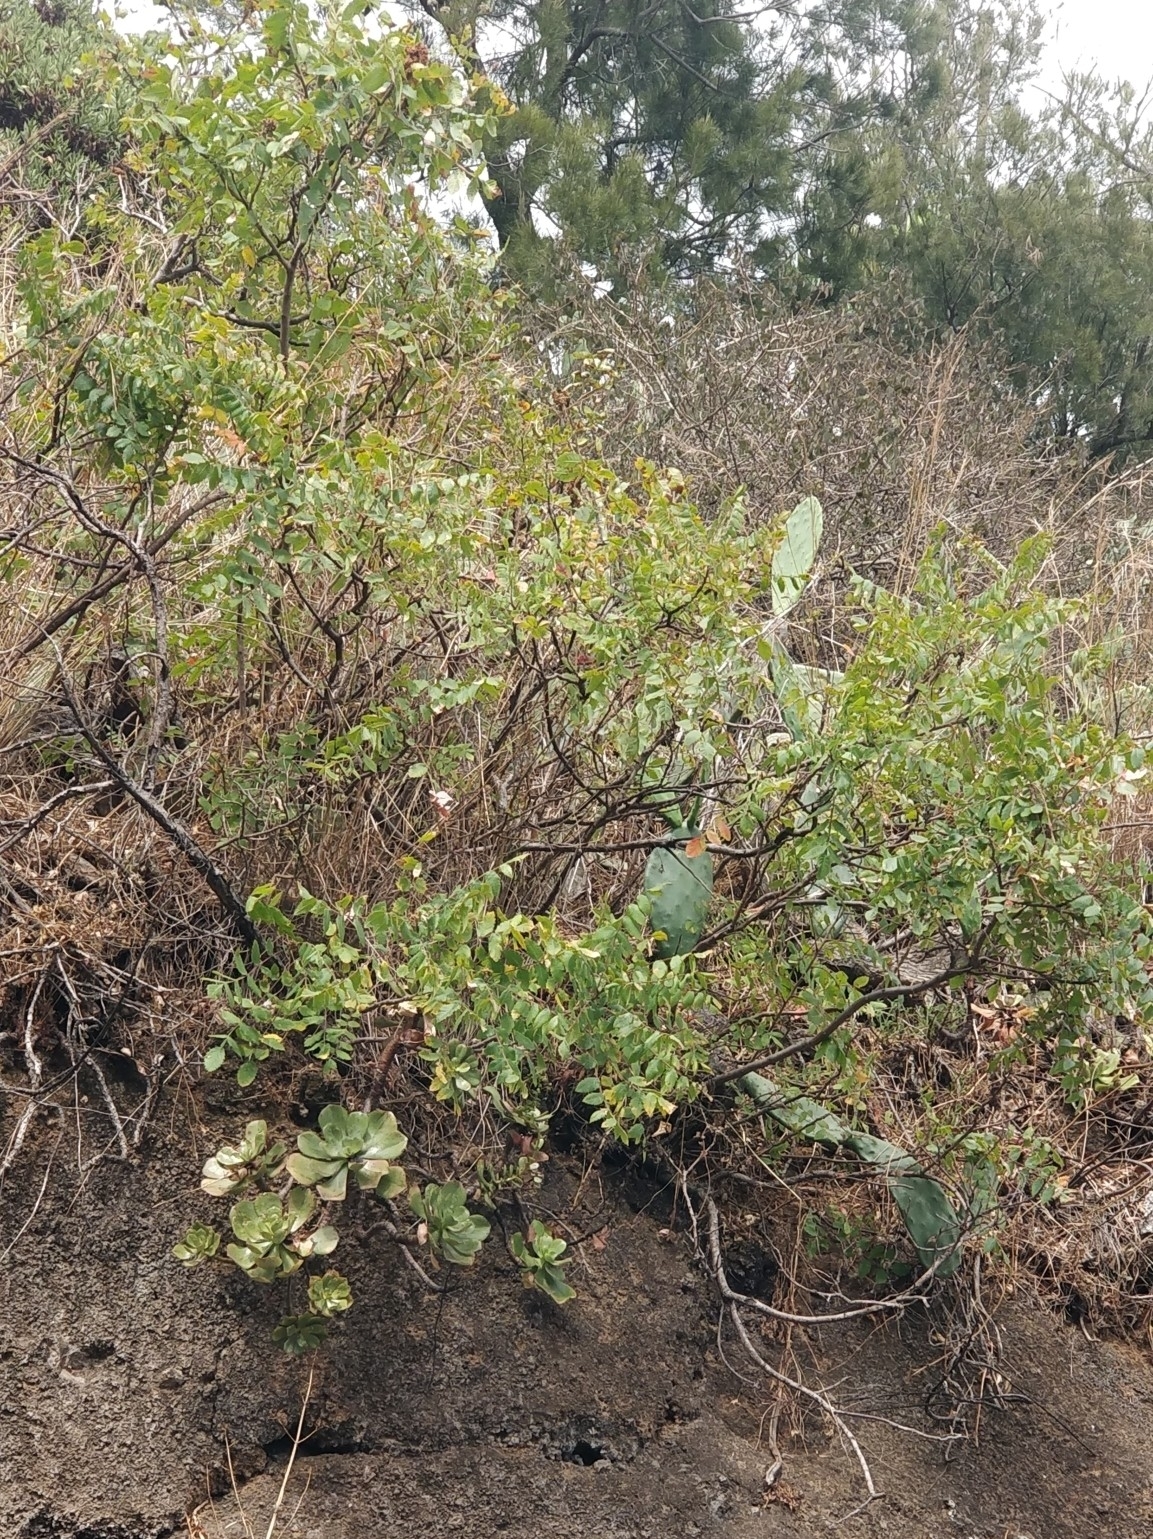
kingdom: Plantae
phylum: Tracheophyta
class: Magnoliopsida
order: Sapindales
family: Anacardiaceae
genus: Rhus
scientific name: Rhus coriaria
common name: Tanner's sumach
